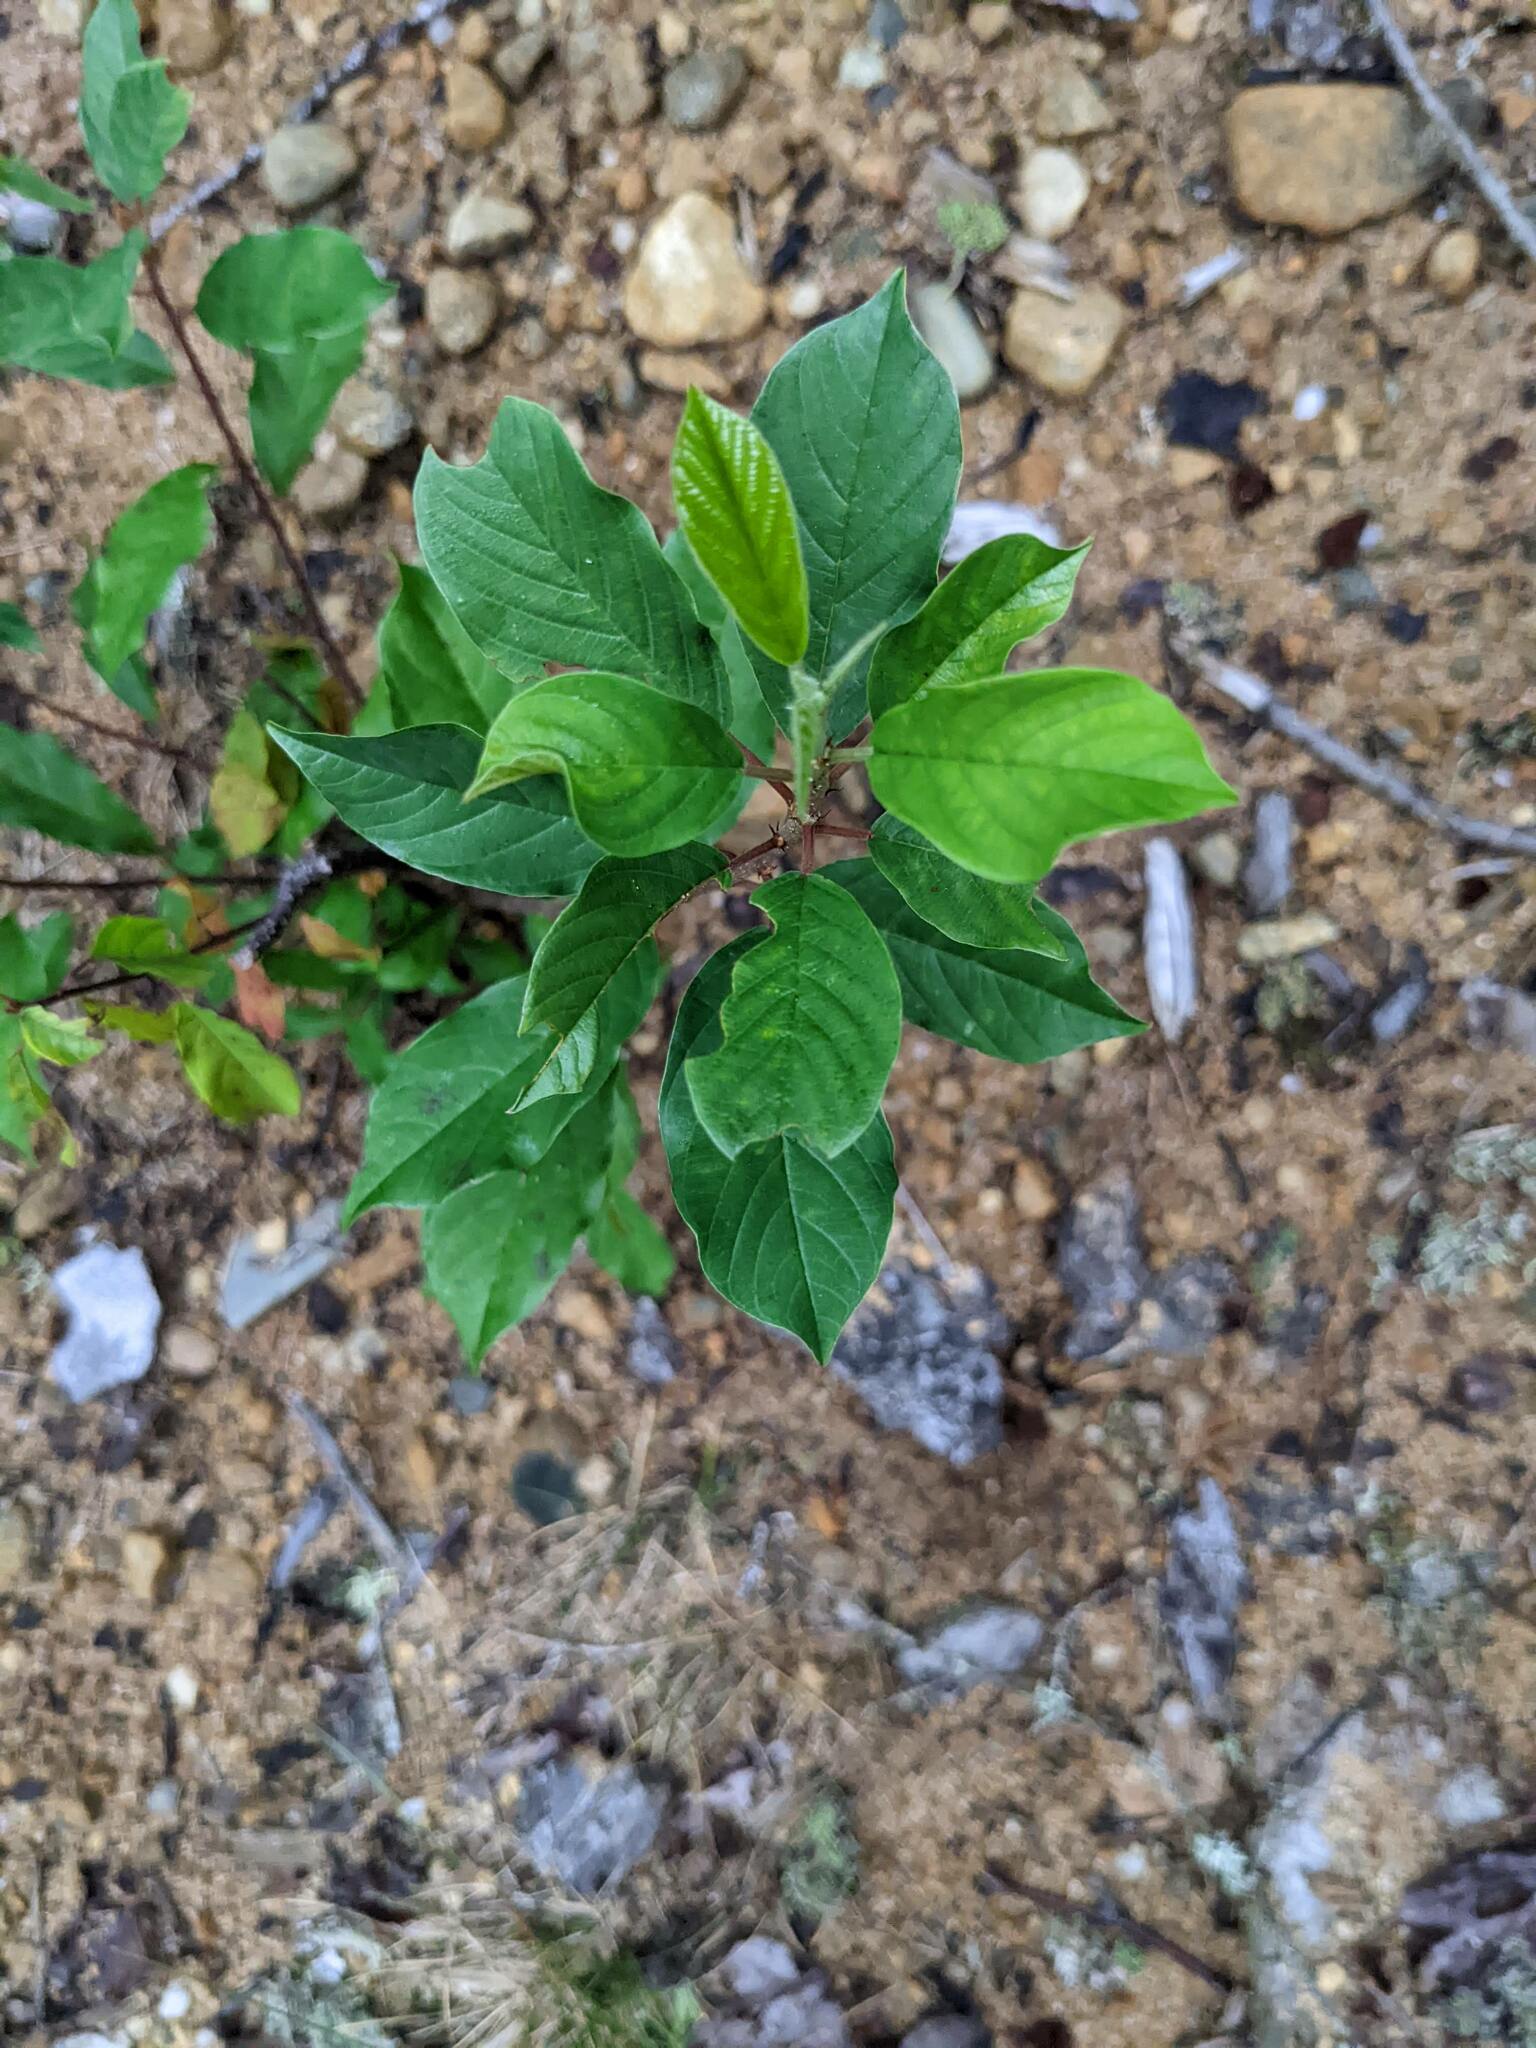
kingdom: Plantae
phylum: Tracheophyta
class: Magnoliopsida
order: Rosales
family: Rhamnaceae
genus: Frangula
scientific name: Frangula alnus
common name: Alder buckthorn
